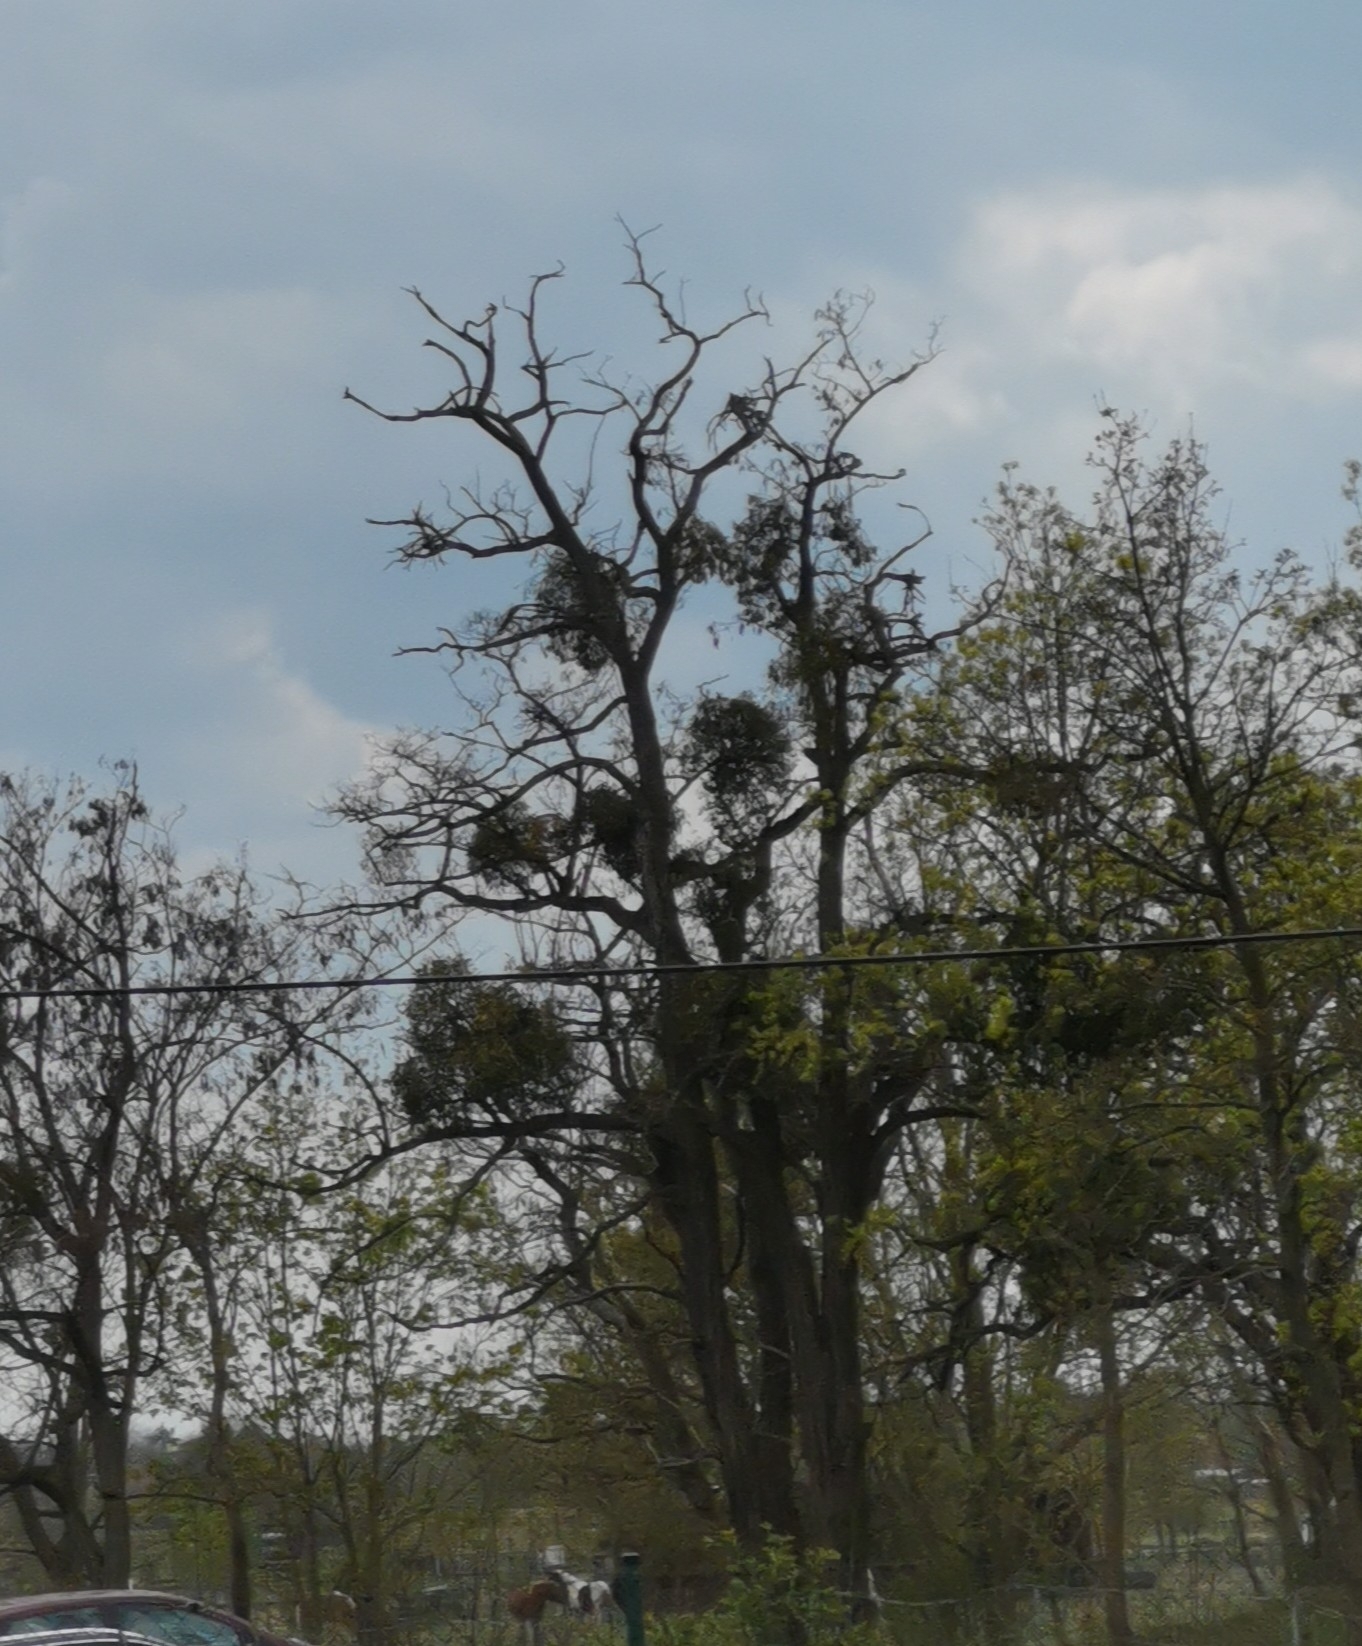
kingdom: Plantae
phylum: Tracheophyta
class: Magnoliopsida
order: Santalales
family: Viscaceae
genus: Viscum
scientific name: Viscum album
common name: Mistletoe
